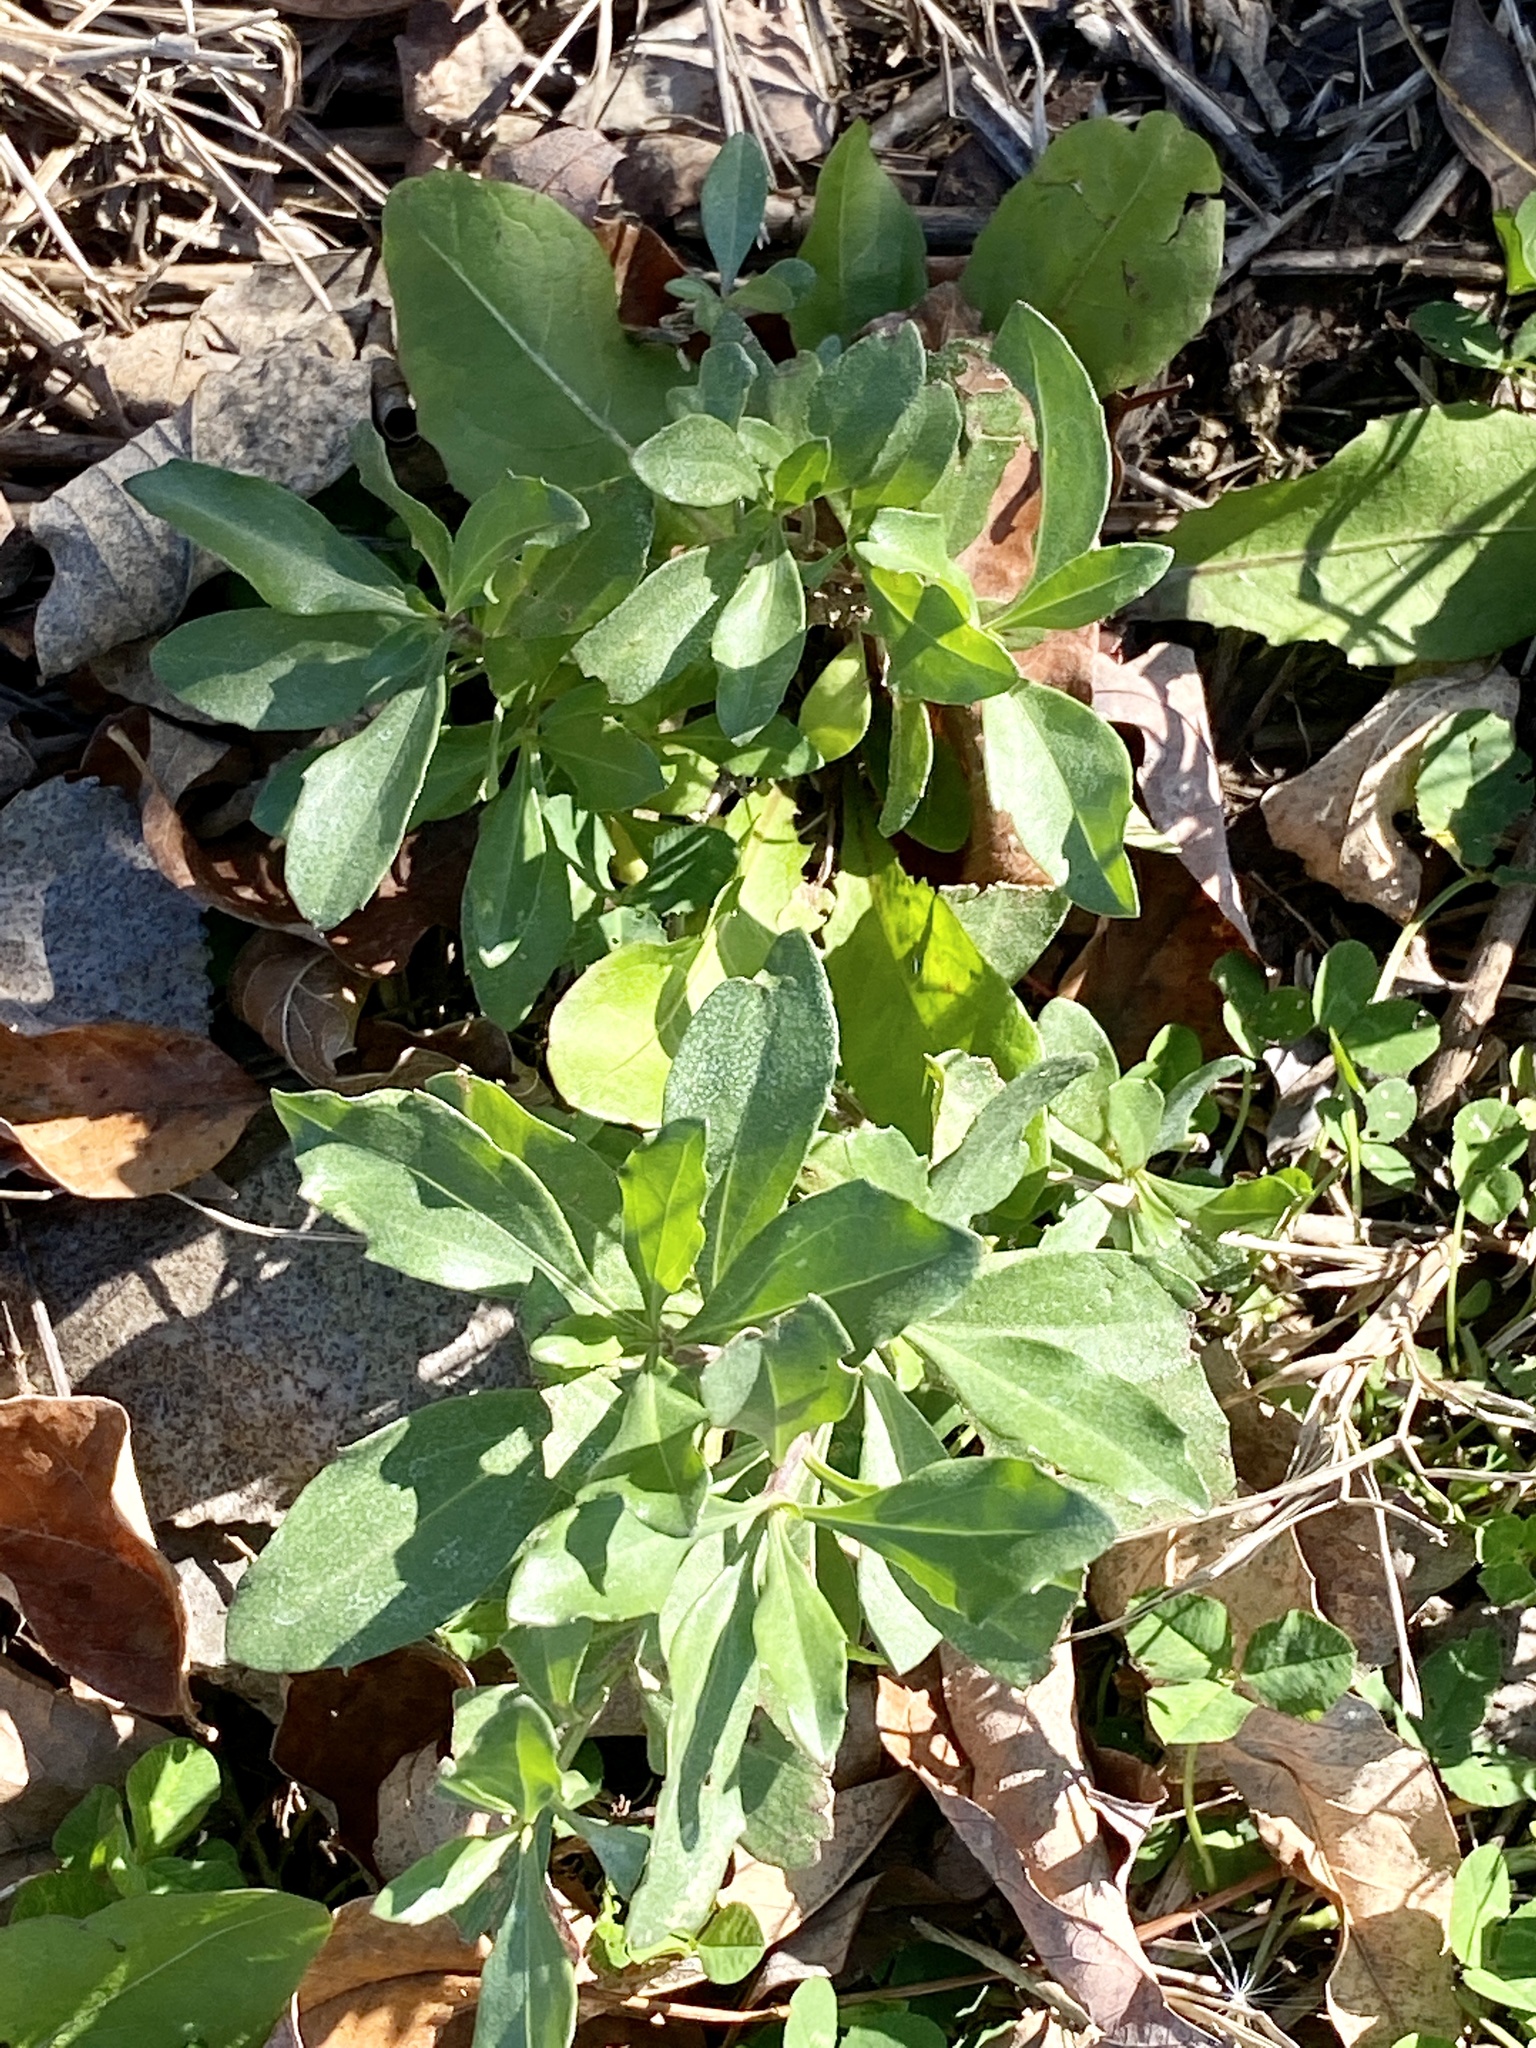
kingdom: Plantae
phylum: Tracheophyta
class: Magnoliopsida
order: Asterales
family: Asteraceae
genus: Baccharis
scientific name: Baccharis halimifolia
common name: Eastern baccharis
